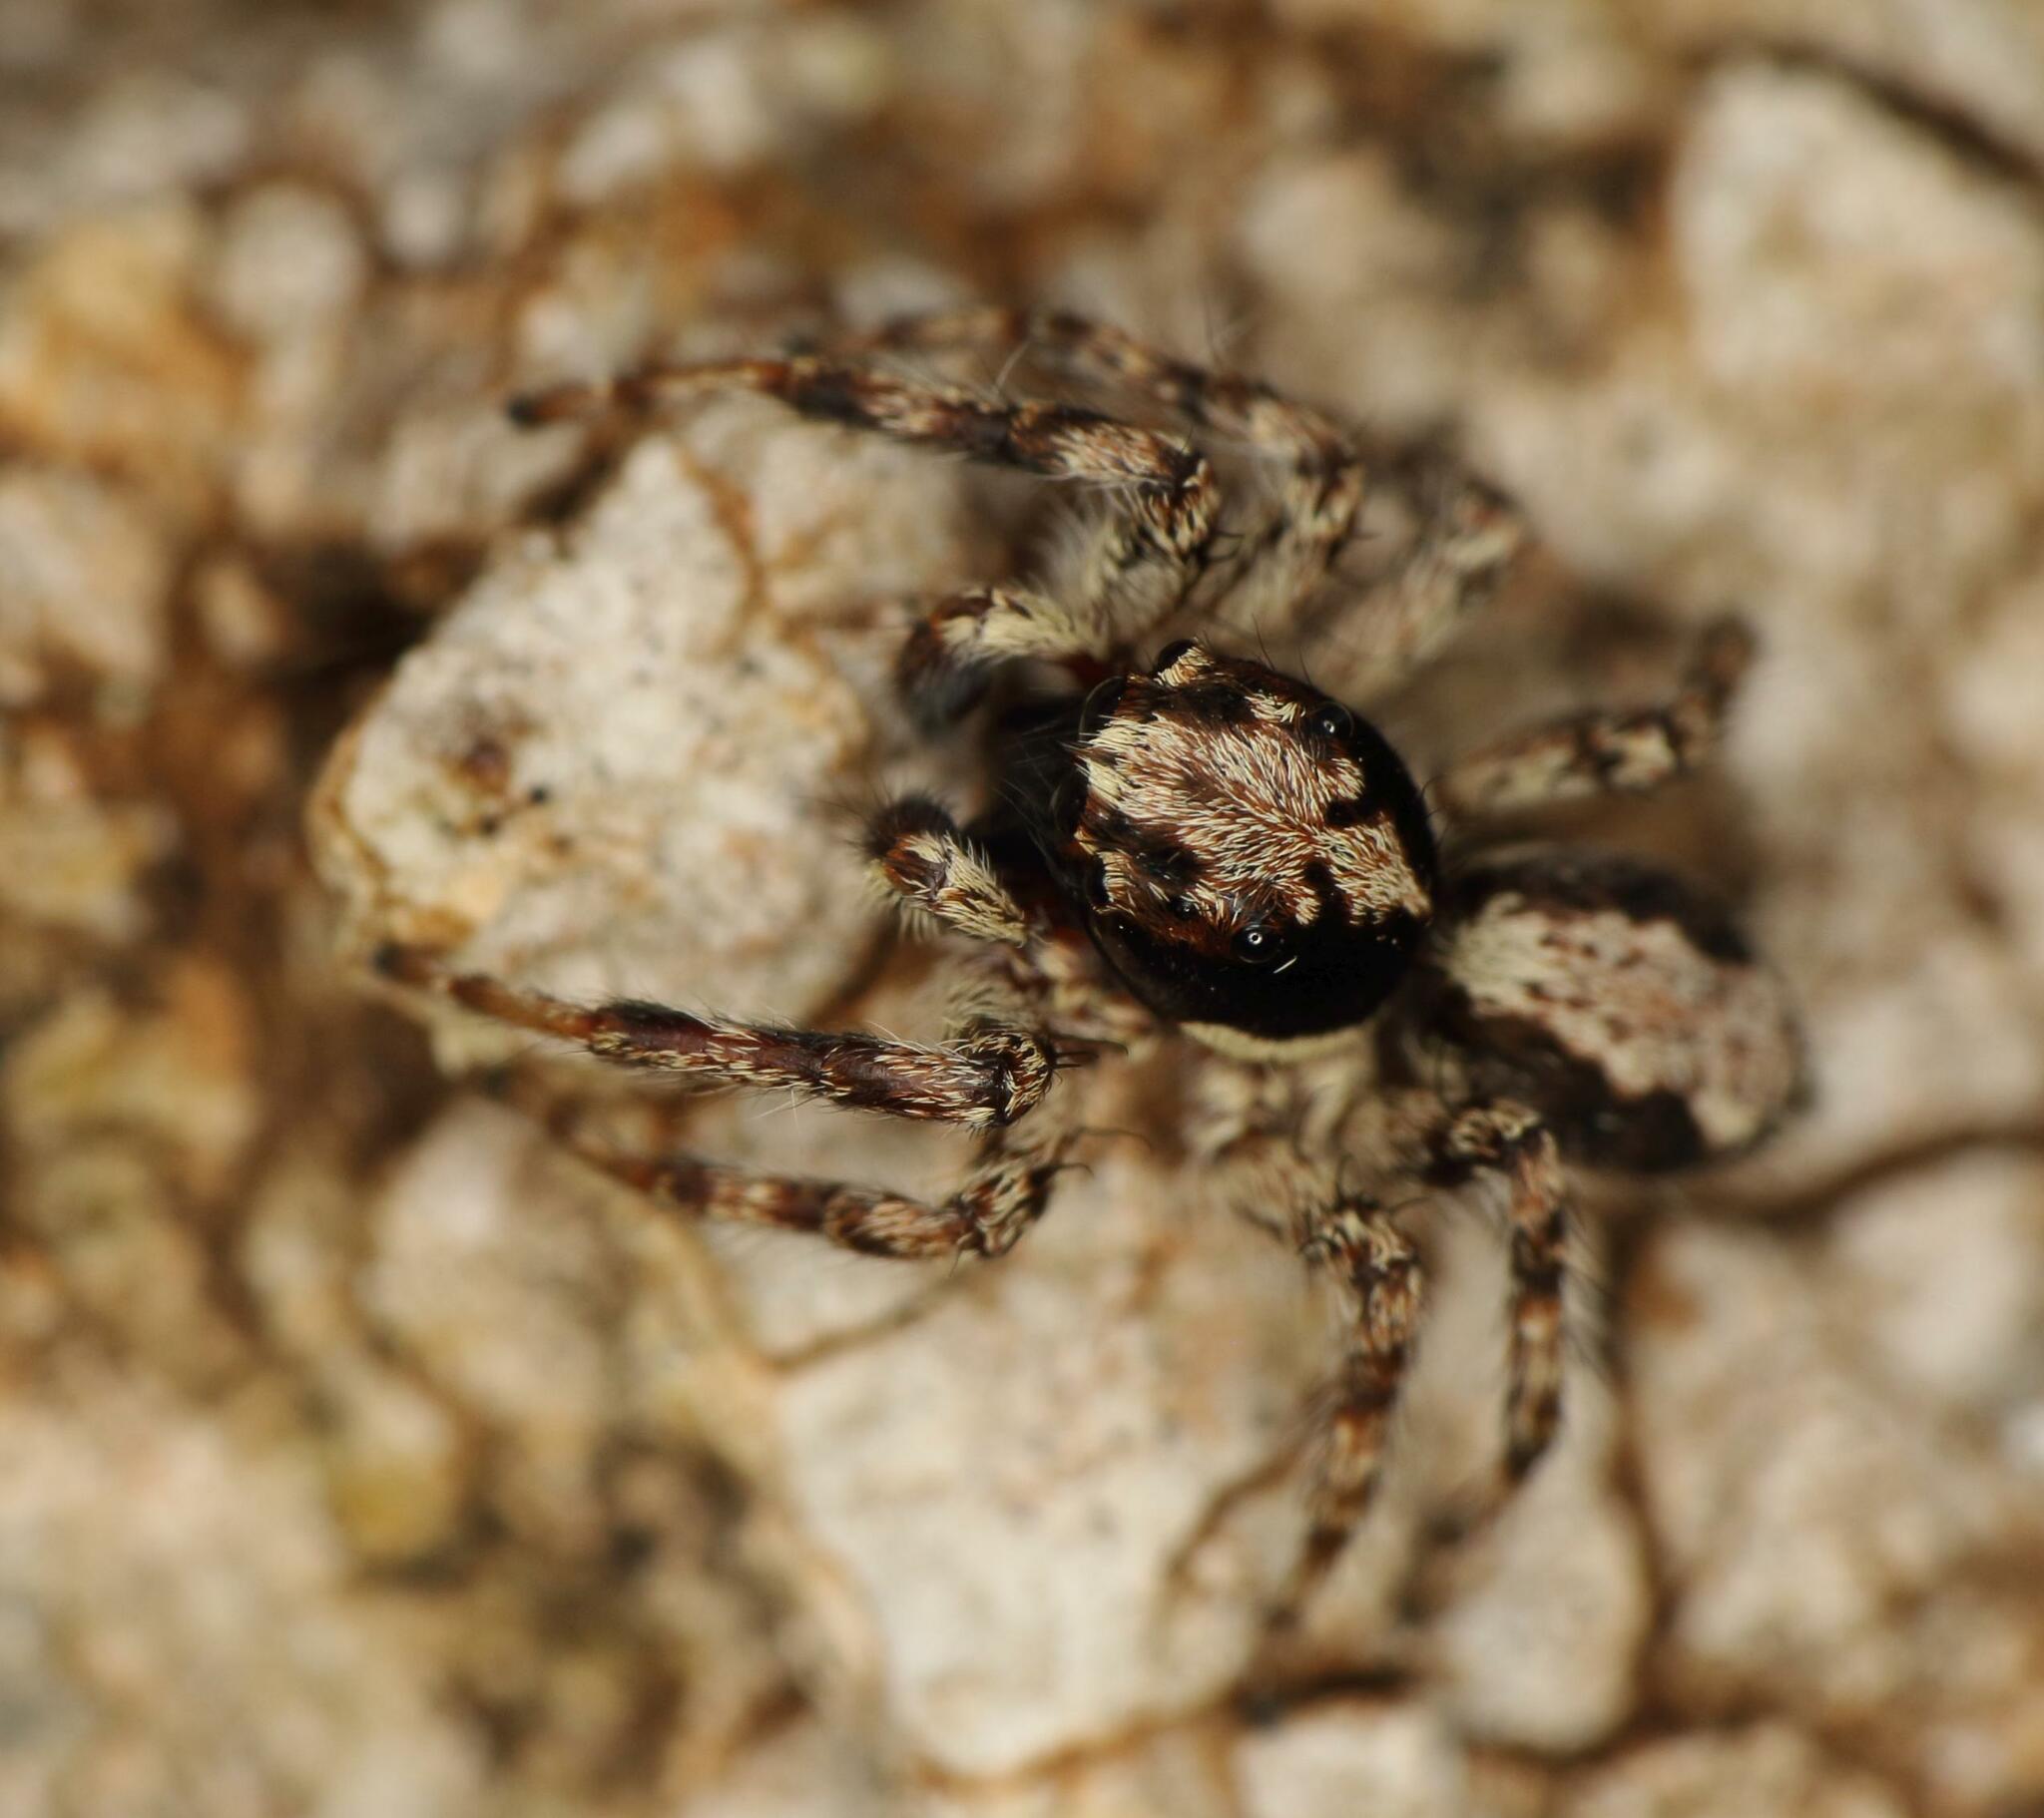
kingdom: Animalia
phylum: Arthropoda
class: Arachnida
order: Araneae
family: Salticidae
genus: Schenkelia
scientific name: Schenkelia modesta
